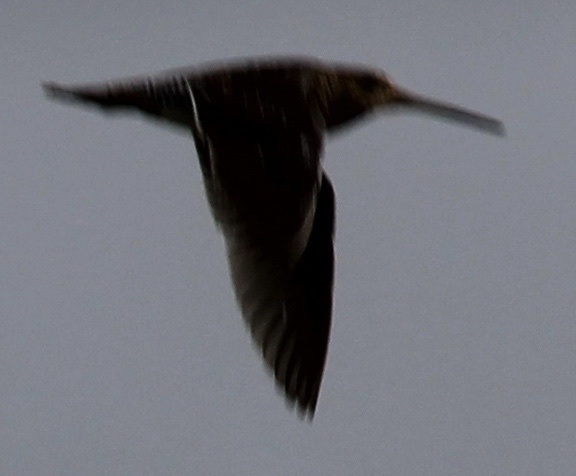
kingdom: Animalia
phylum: Chordata
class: Aves
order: Charadriiformes
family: Scolopacidae
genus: Gallinago
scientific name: Gallinago delicata
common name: Wilson's snipe
